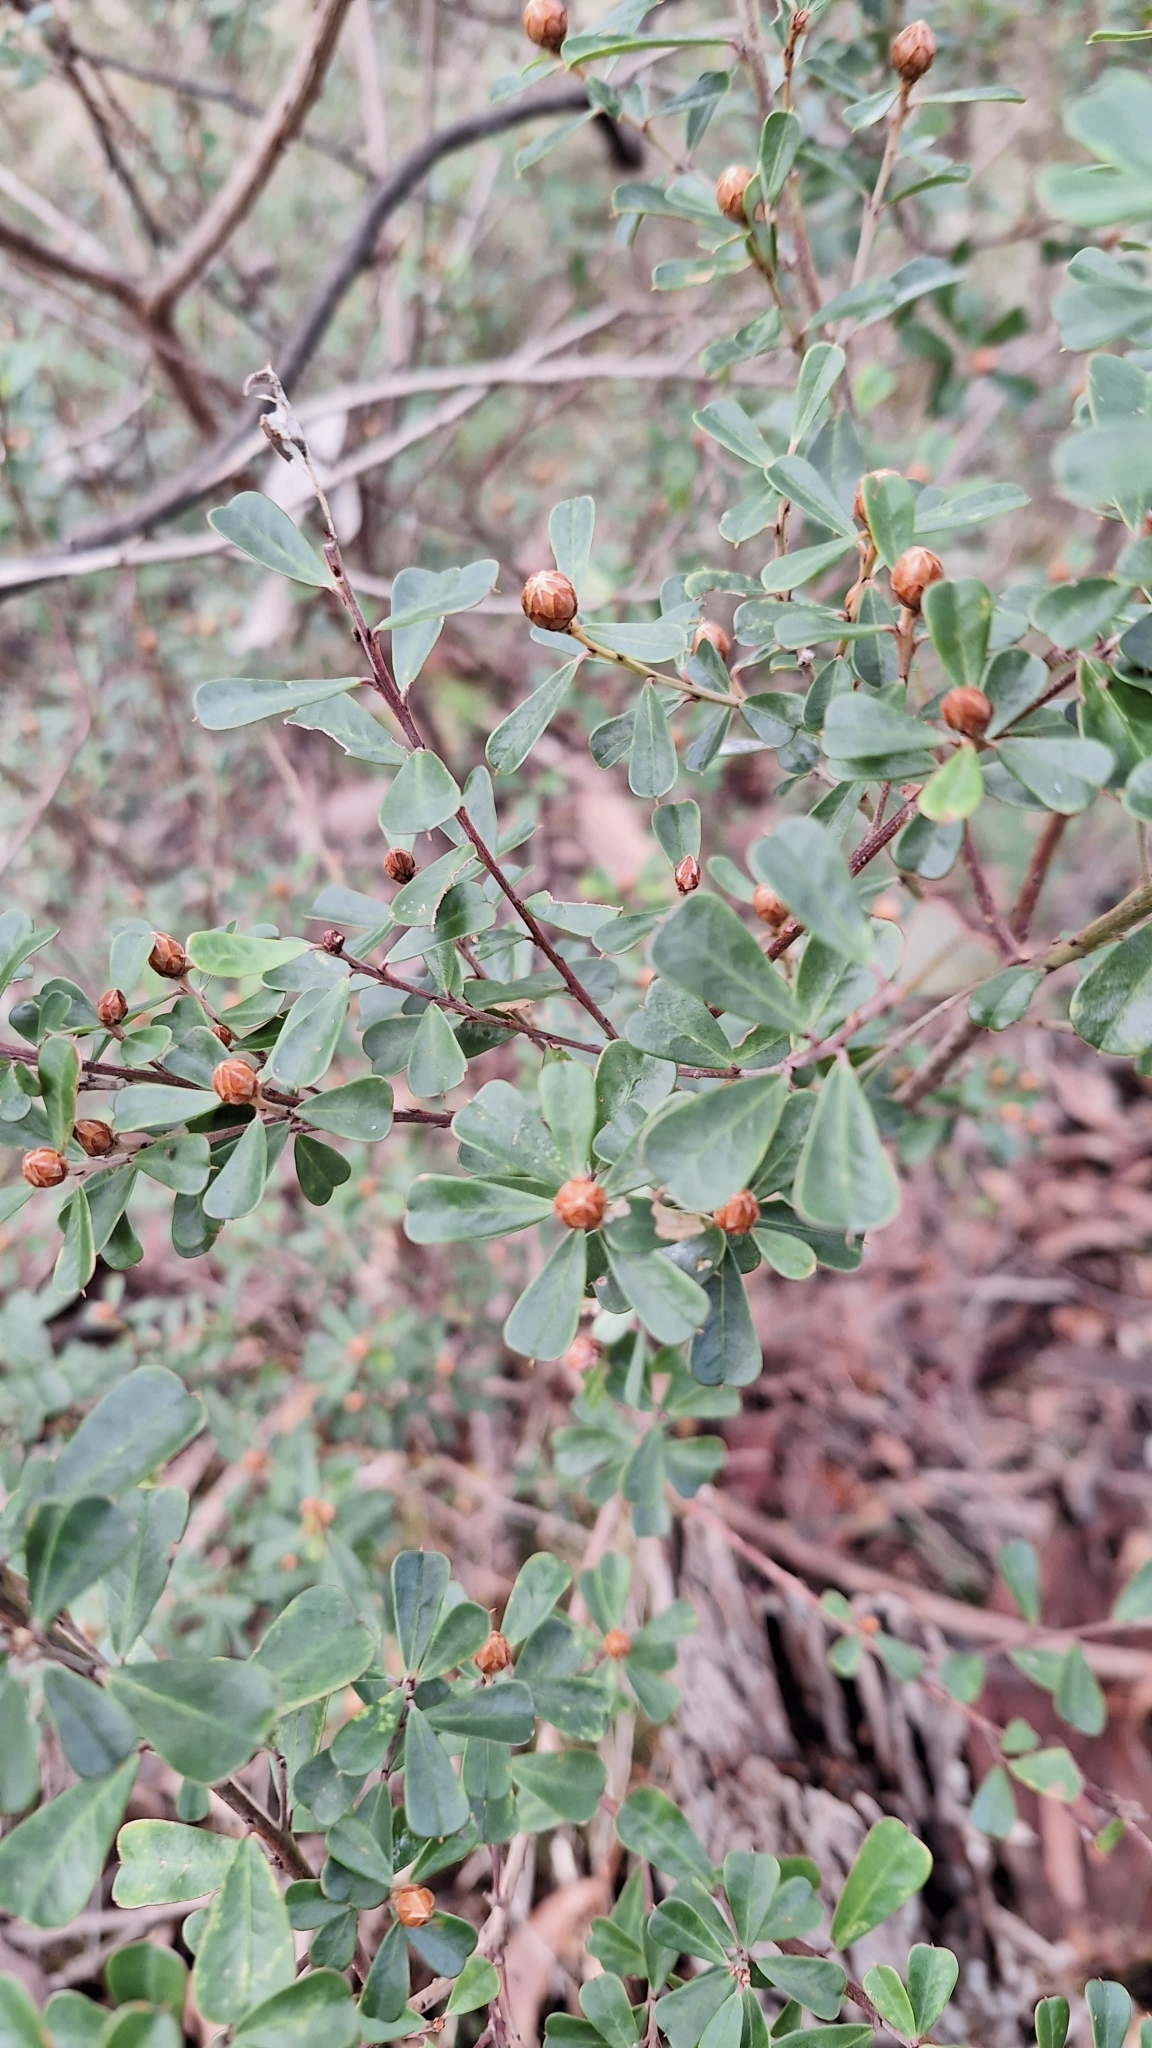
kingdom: Plantae
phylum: Tracheophyta
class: Magnoliopsida
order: Fabales
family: Fabaceae
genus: Pultenaea
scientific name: Pultenaea daphnoides
